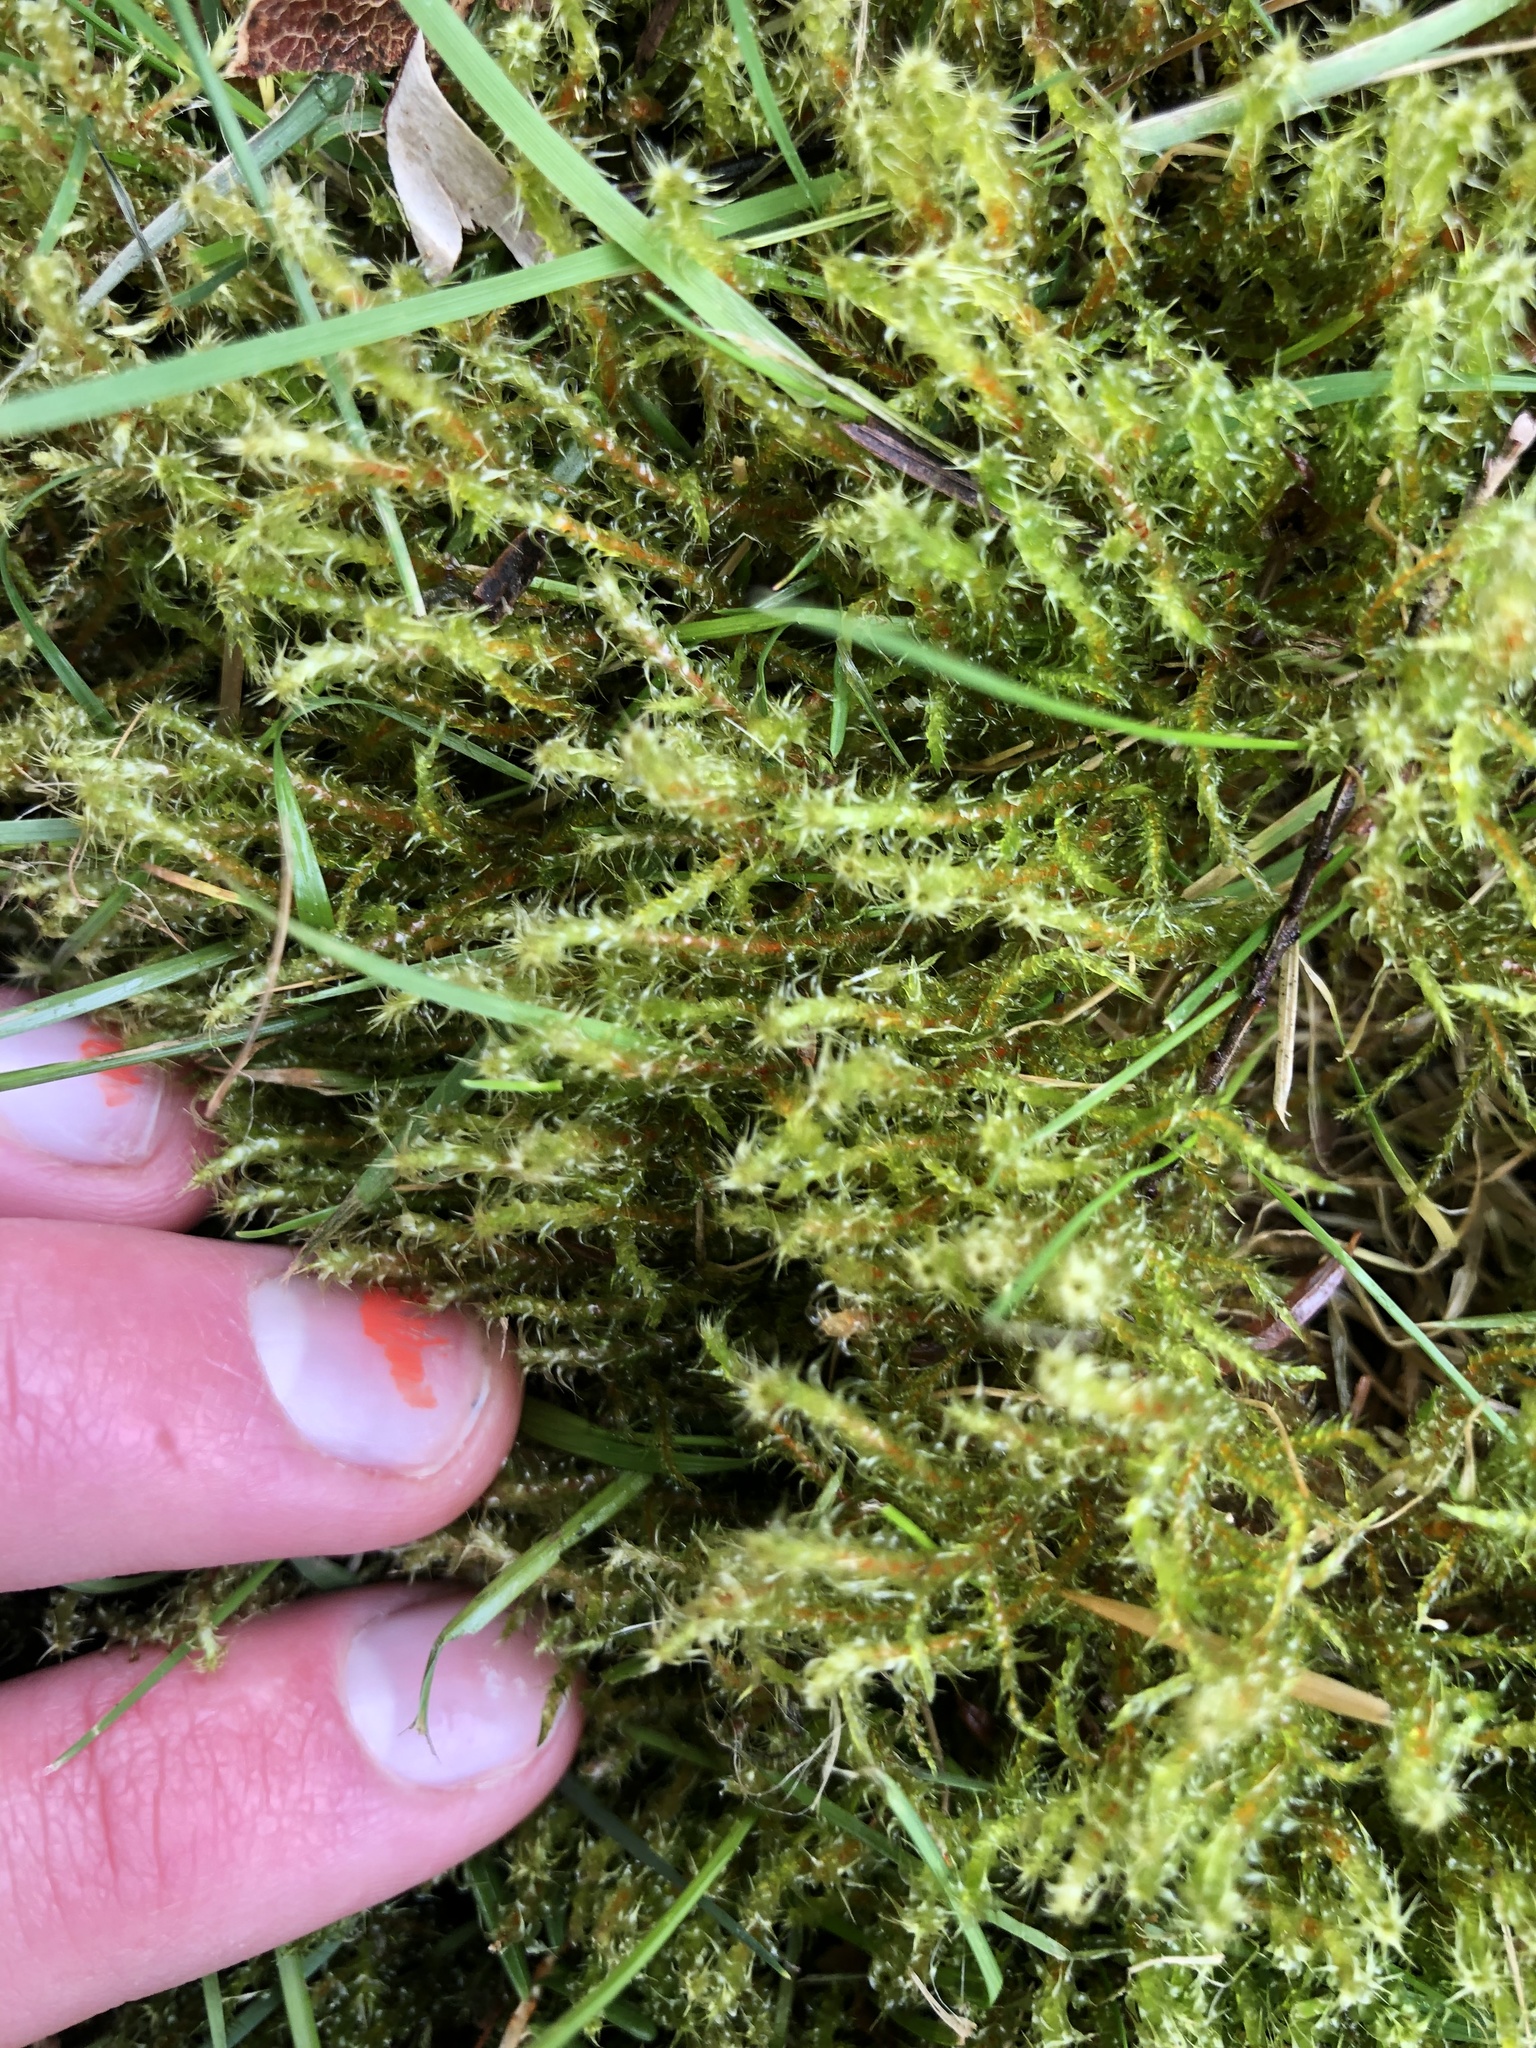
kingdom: Plantae
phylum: Bryophyta
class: Bryopsida
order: Hypnales
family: Hylocomiaceae
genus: Rhytidiadelphus
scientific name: Rhytidiadelphus squarrosus
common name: Springy turf-moss
